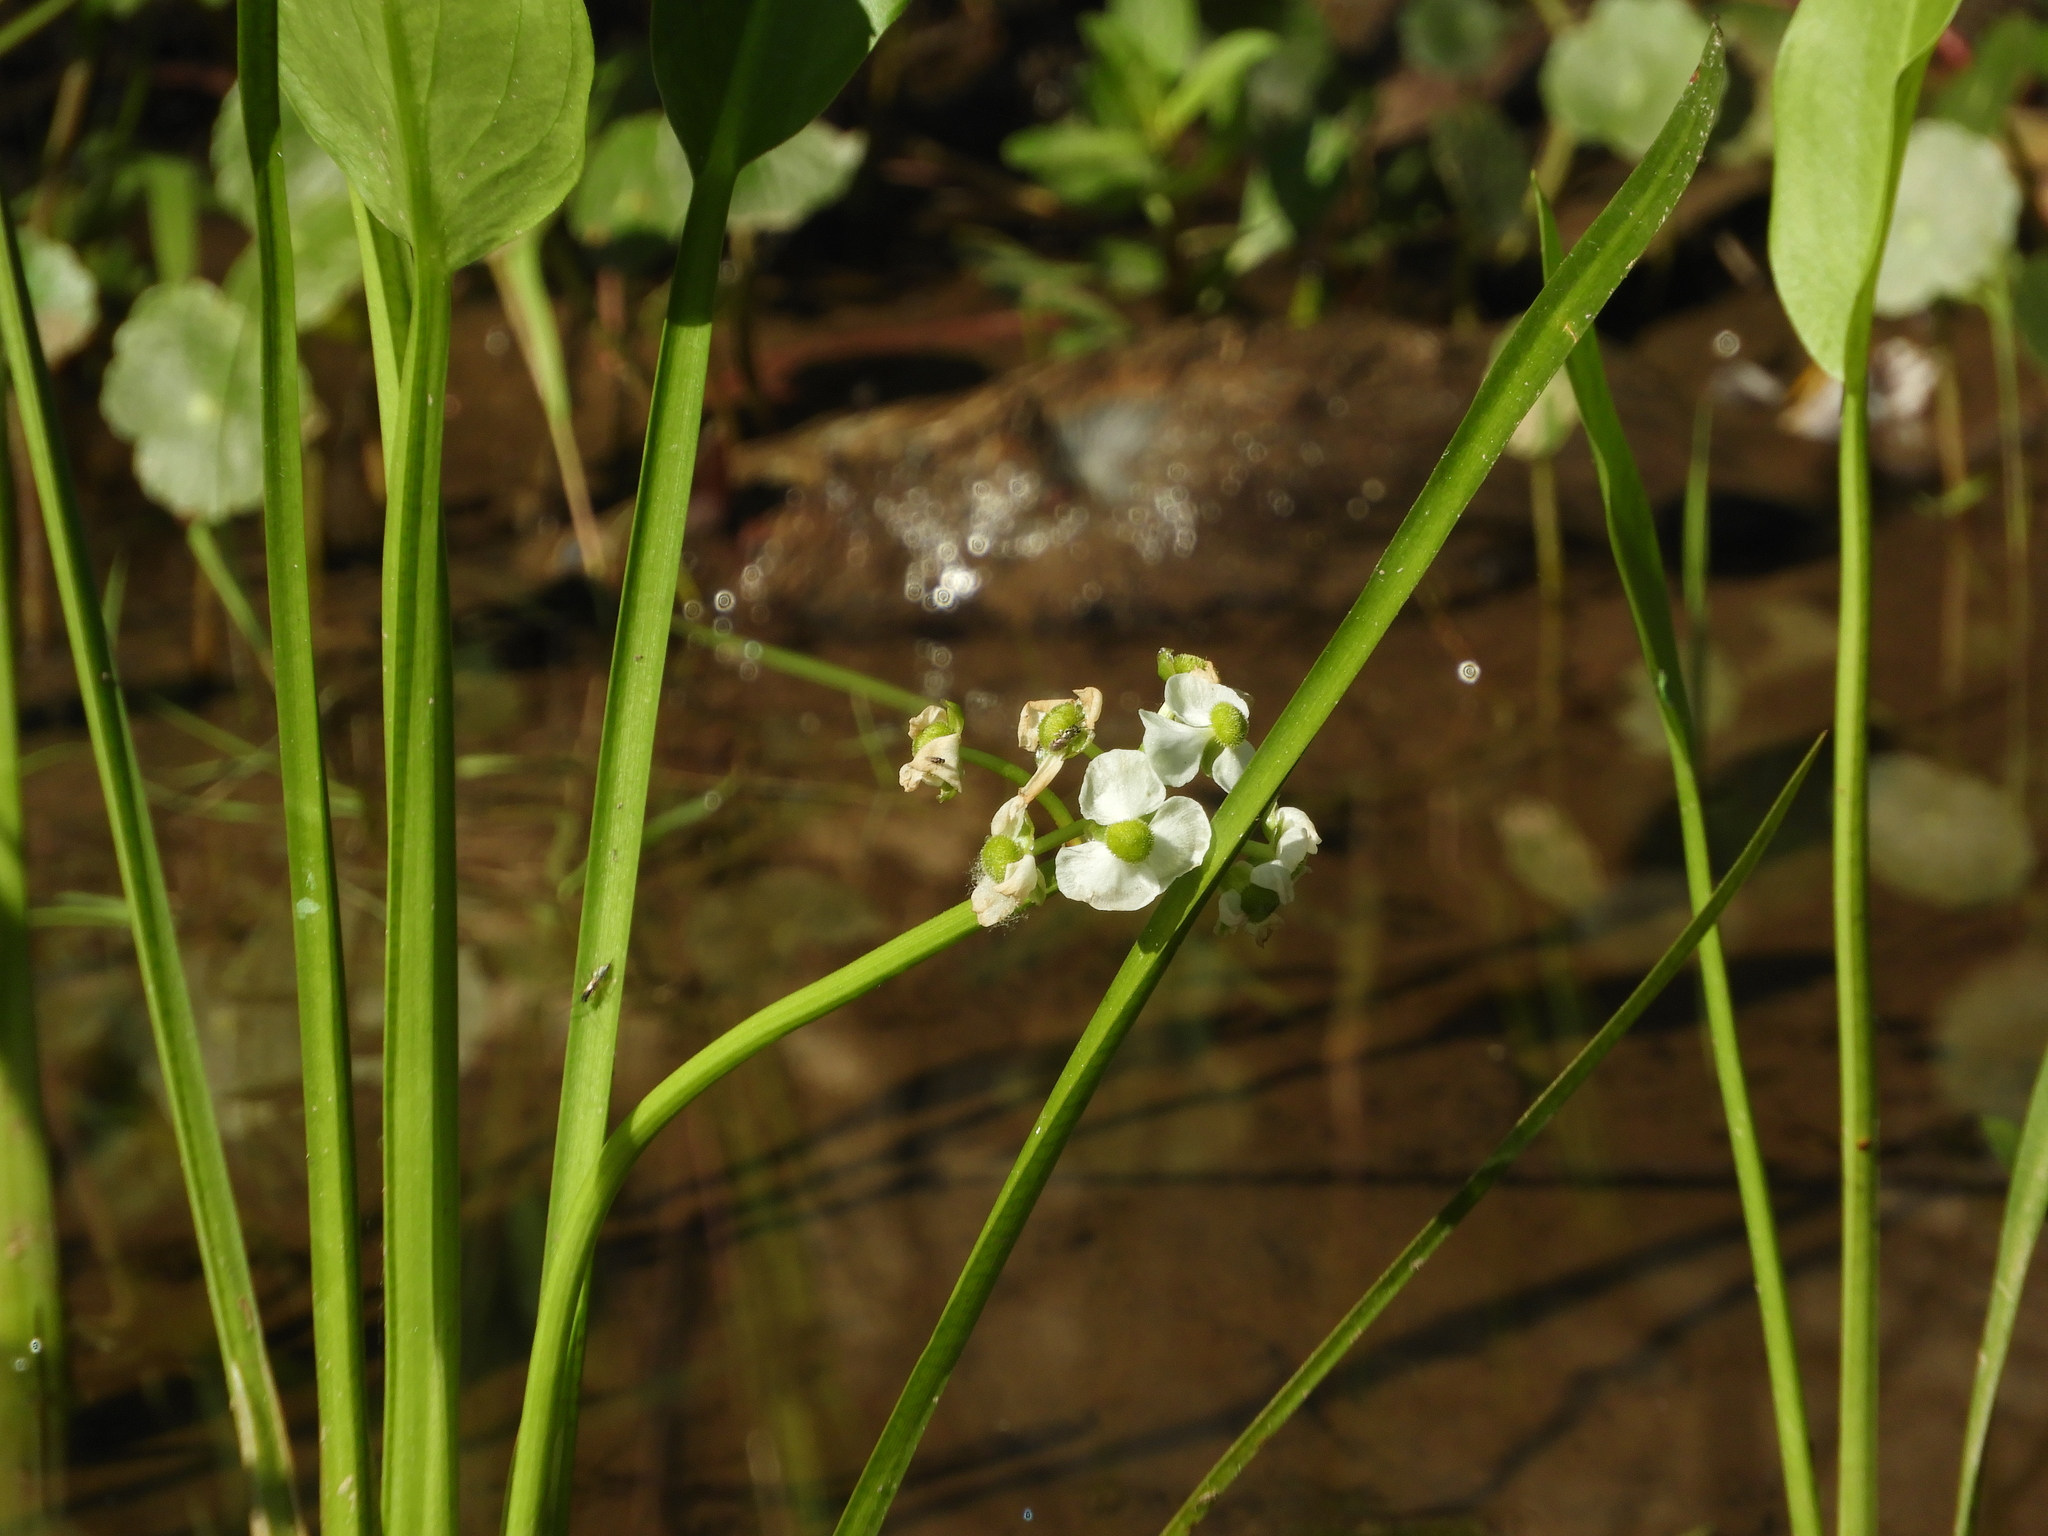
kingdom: Plantae
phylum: Tracheophyta
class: Liliopsida
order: Alismatales
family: Alismataceae
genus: Sagittaria
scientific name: Sagittaria sanfordii
